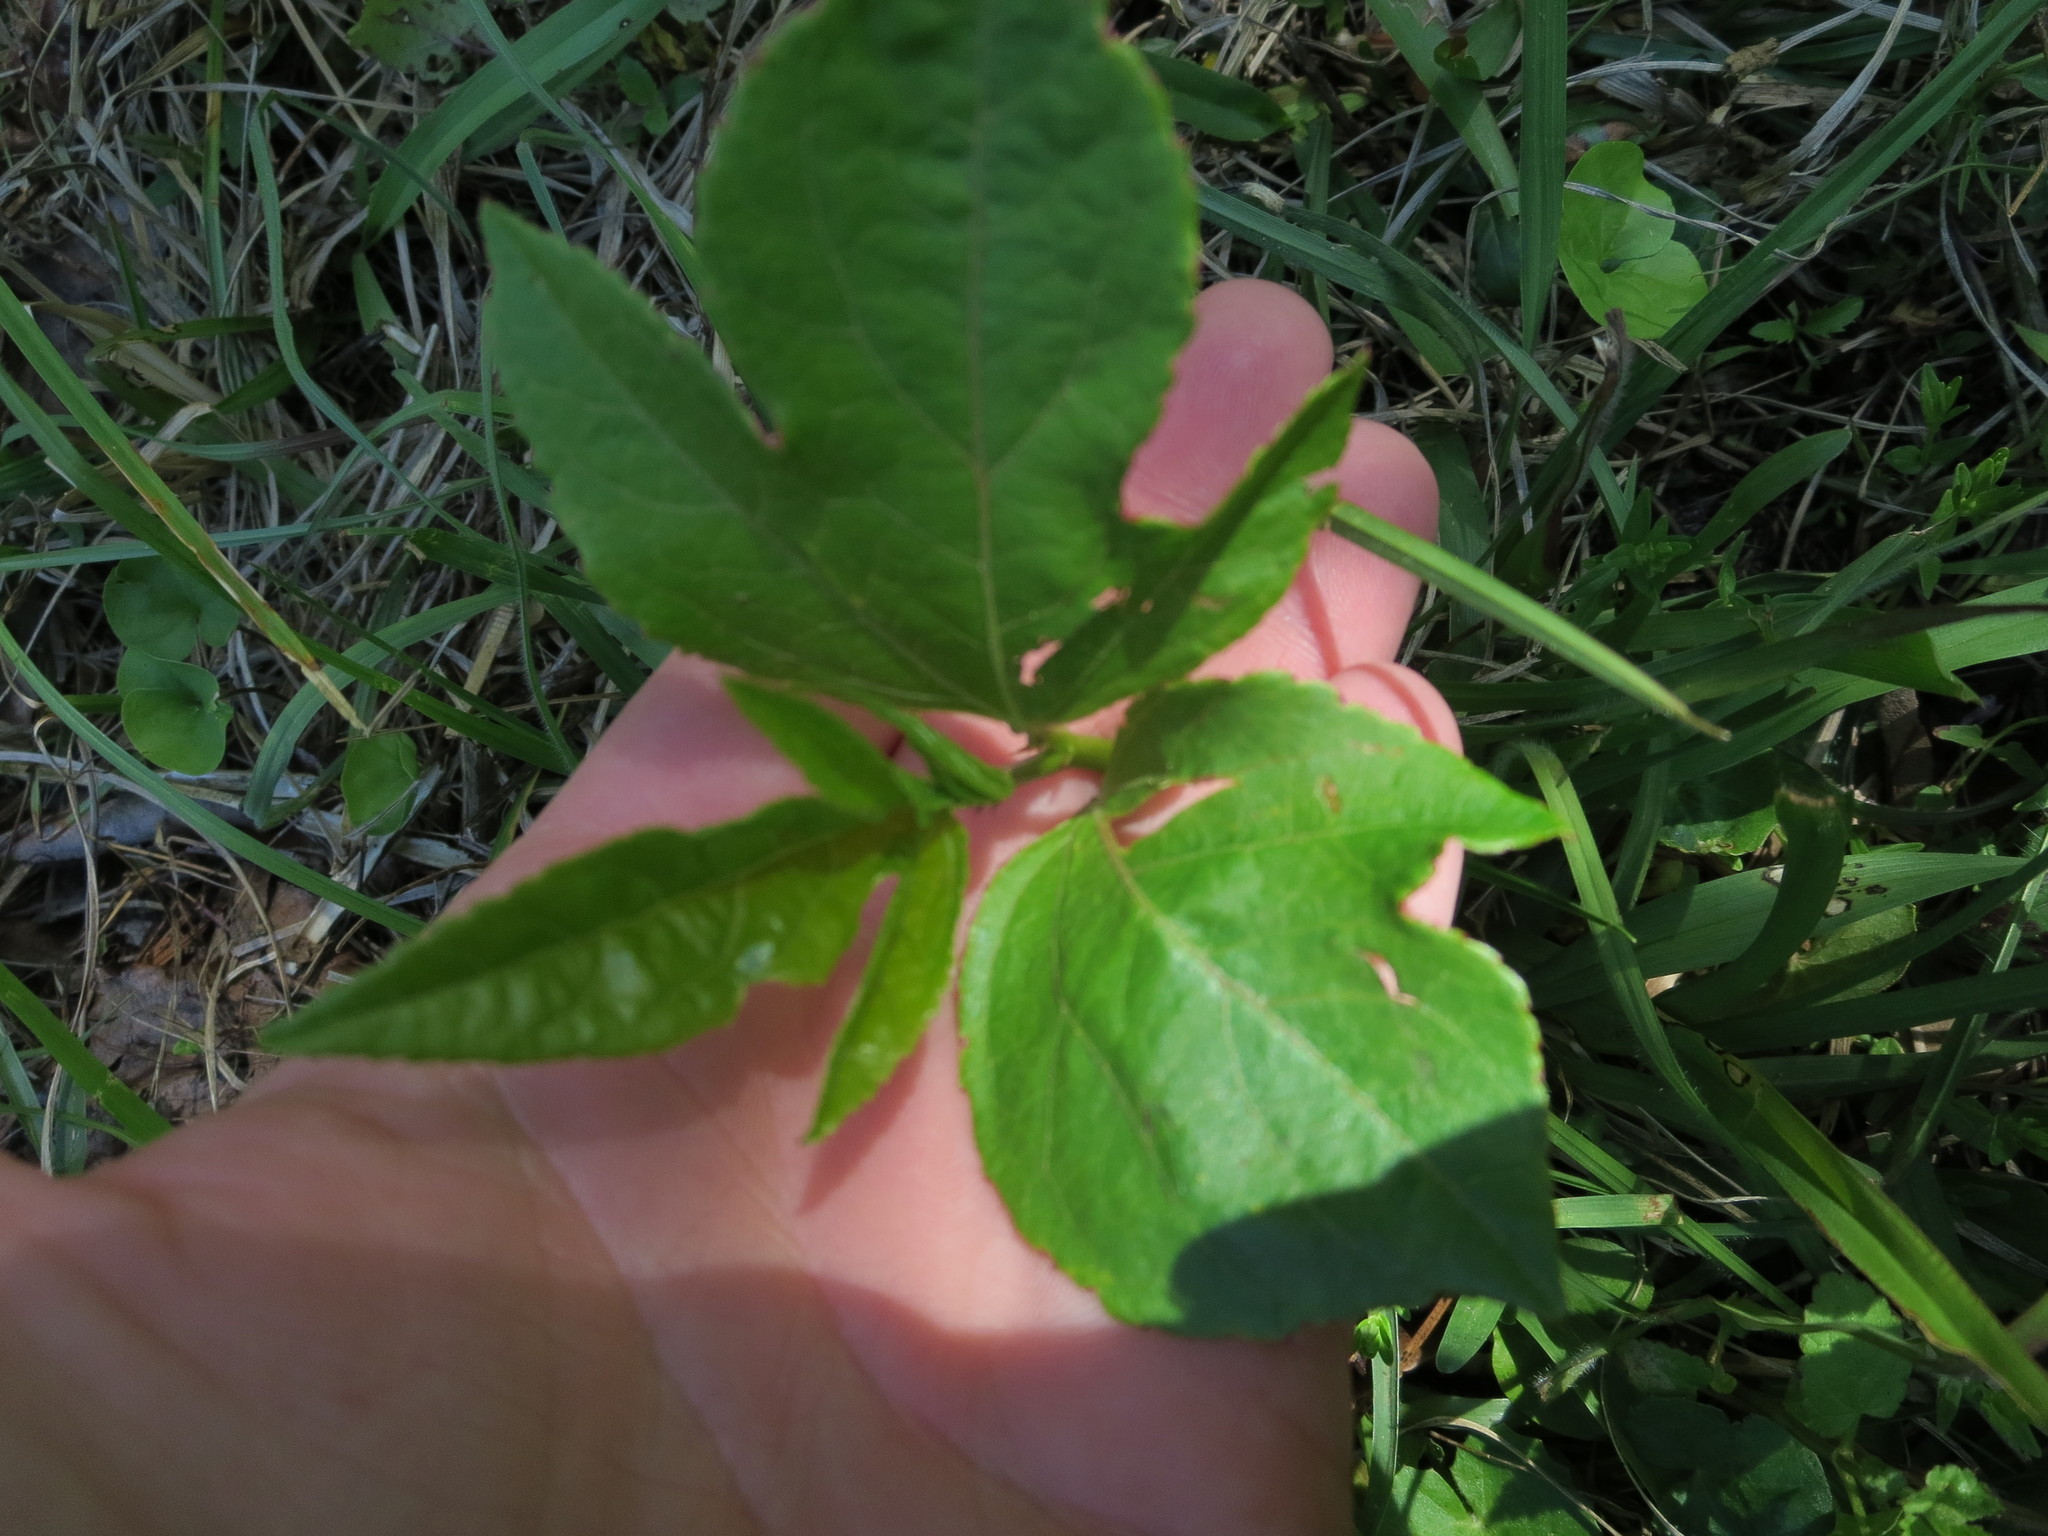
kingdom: Plantae
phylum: Tracheophyta
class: Magnoliopsida
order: Malpighiales
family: Passifloraceae
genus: Passiflora
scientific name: Passiflora incarnata
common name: Apricot-vine
